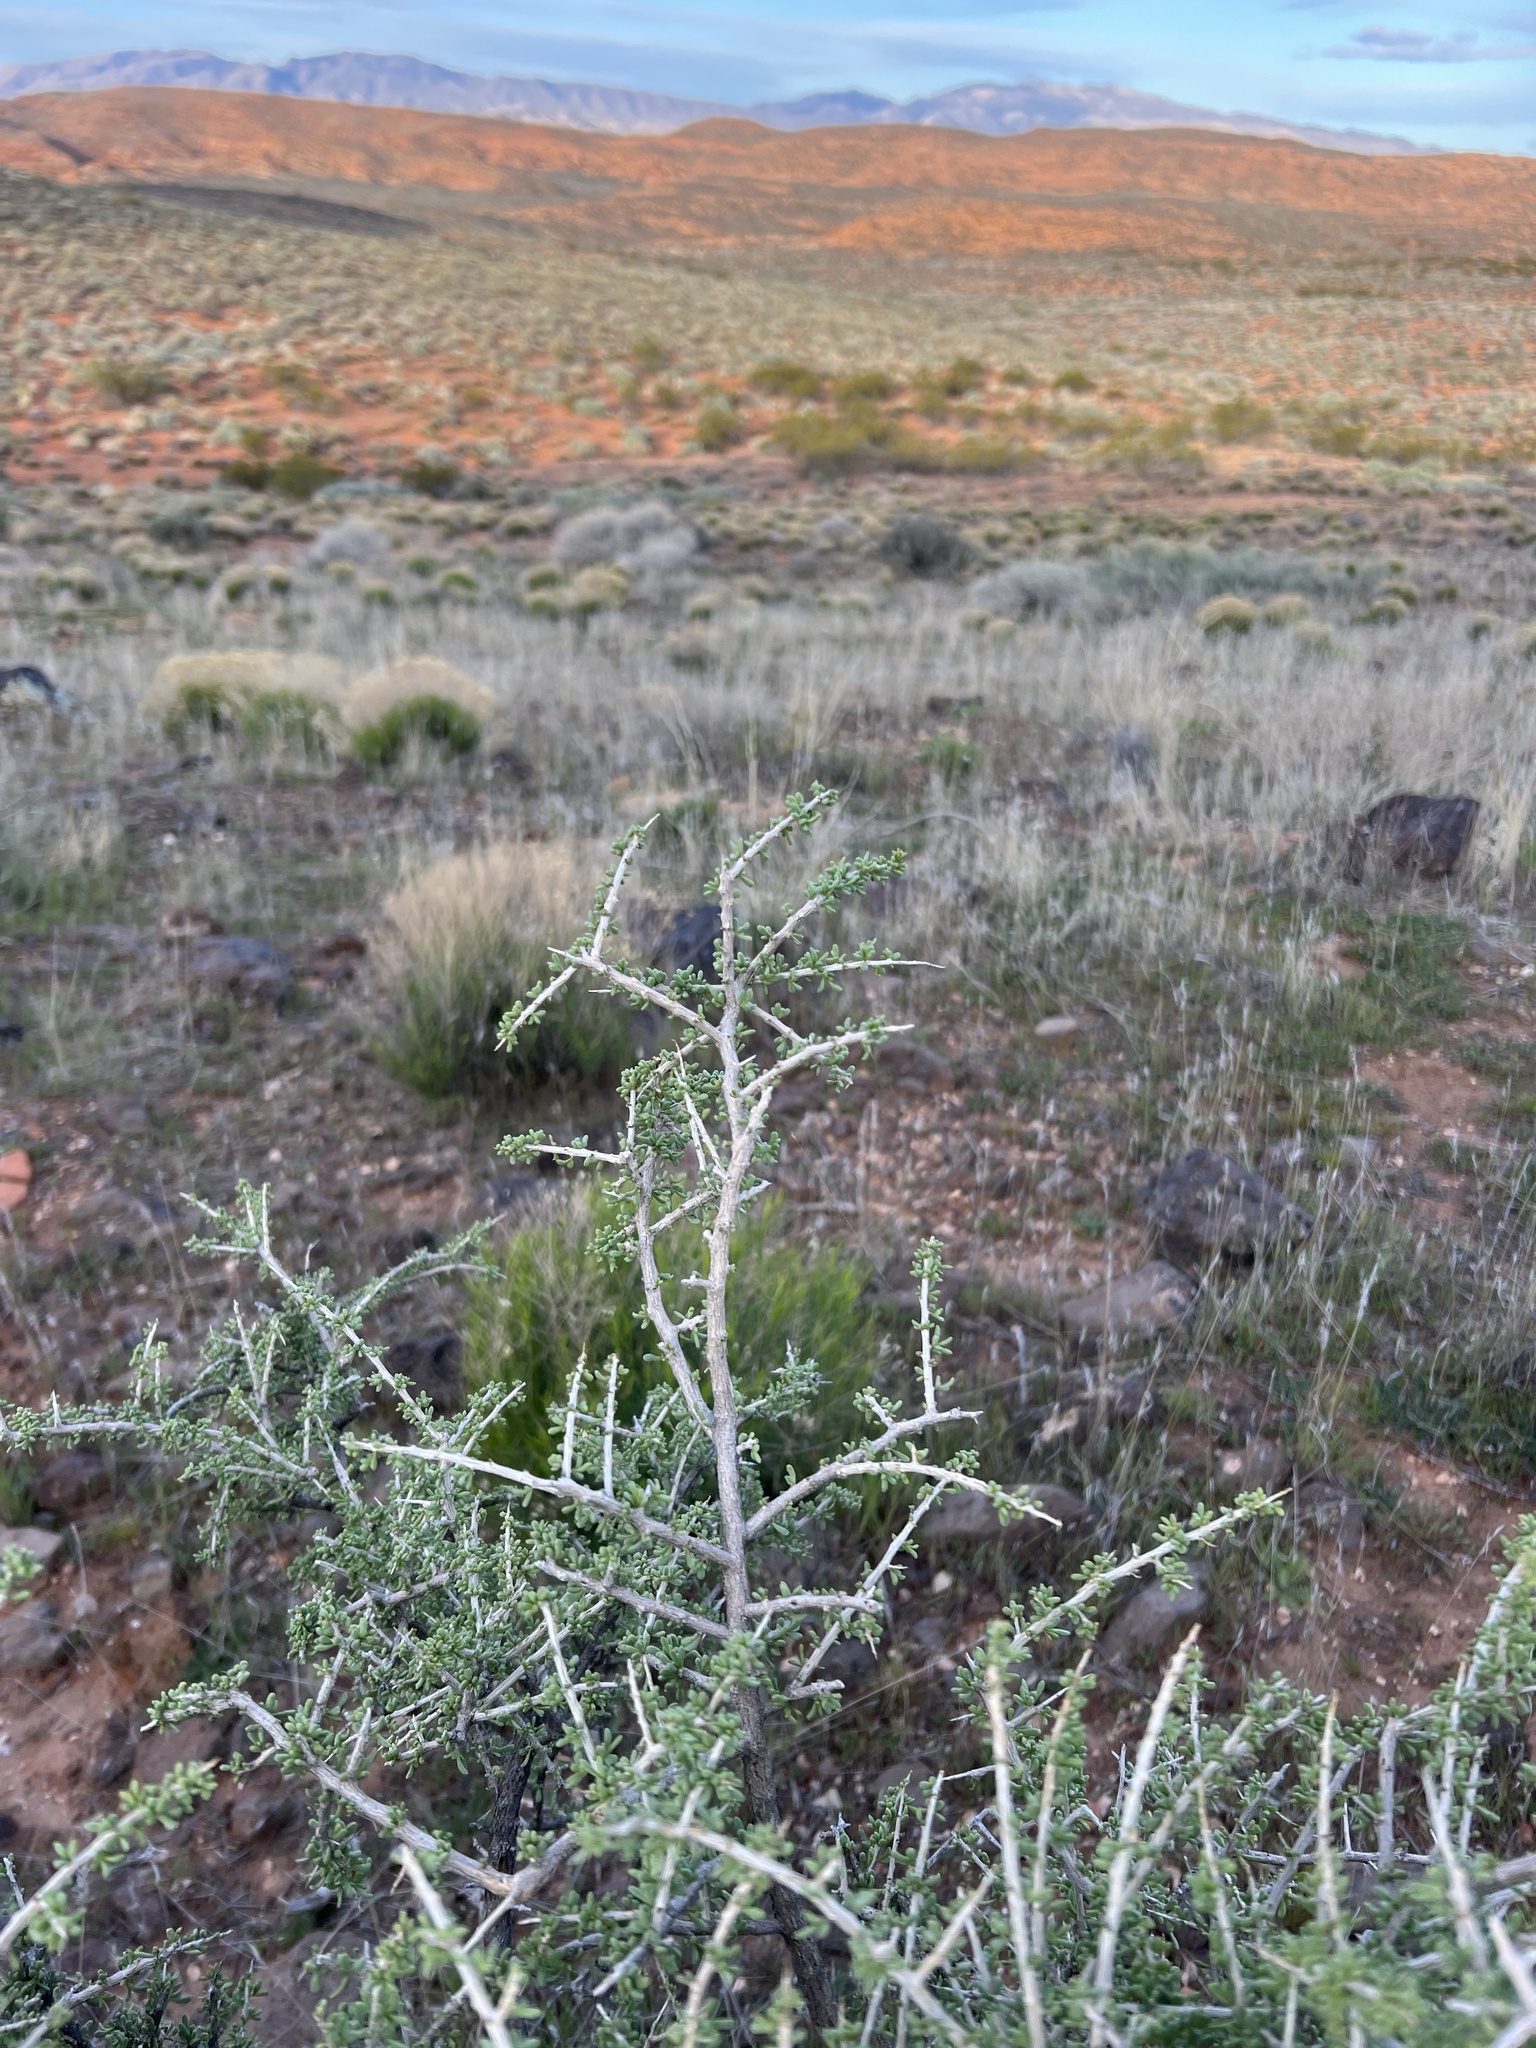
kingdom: Plantae
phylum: Tracheophyta
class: Magnoliopsida
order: Rosales
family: Rosaceae
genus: Prunus
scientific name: Prunus fasciculata
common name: Desert almond
